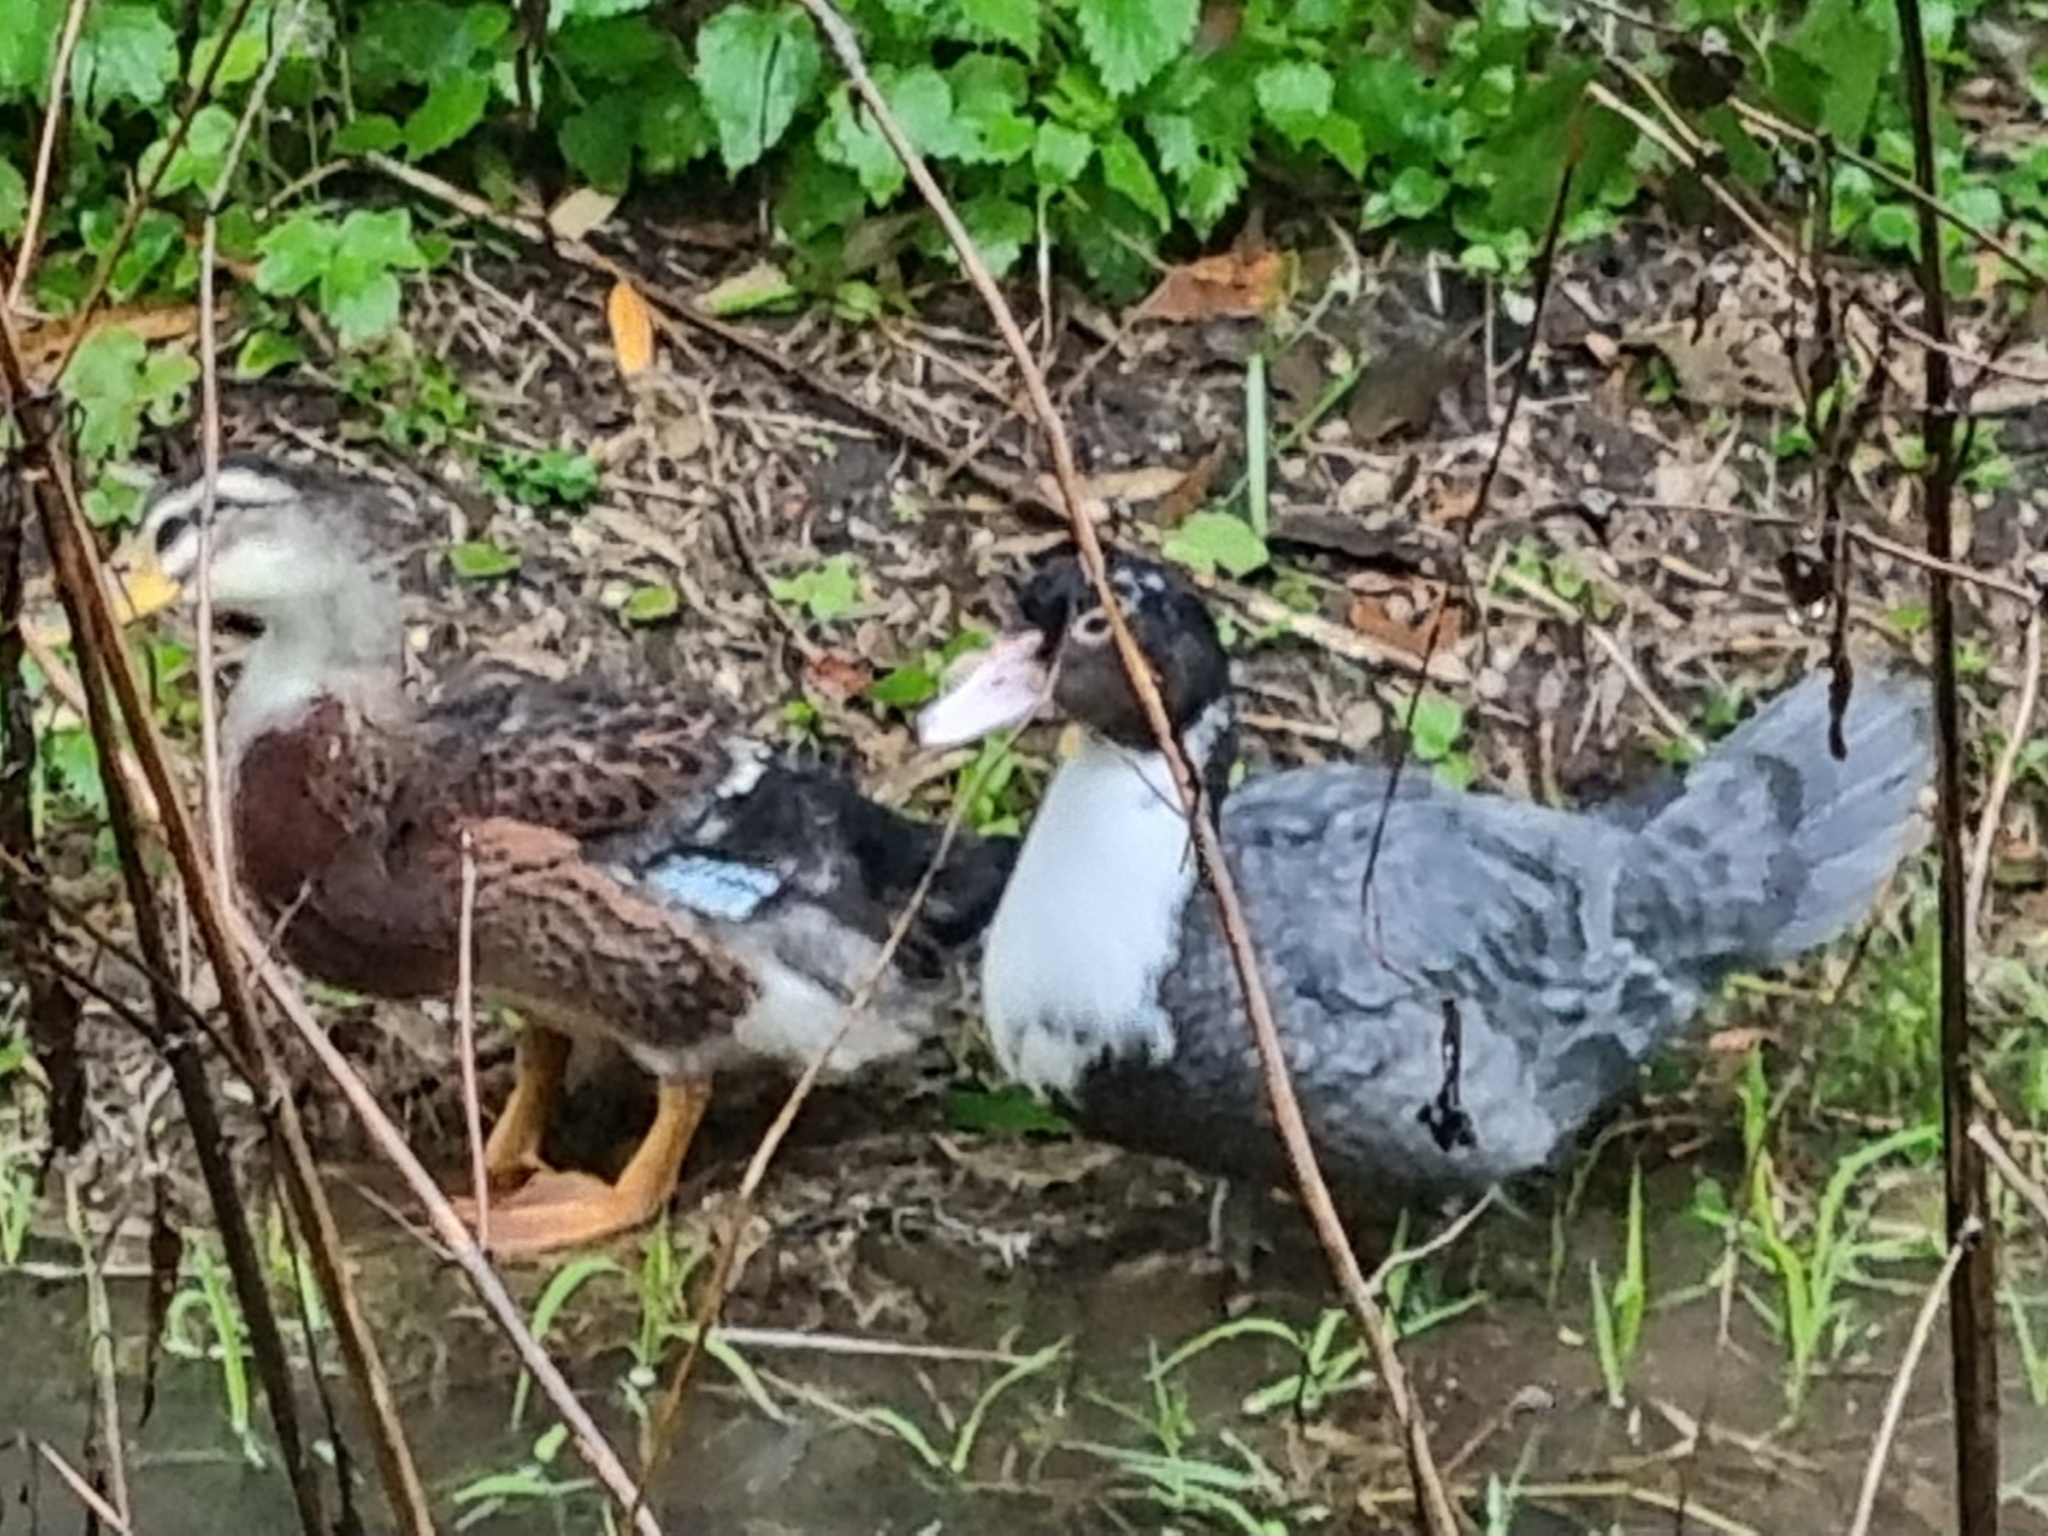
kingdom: Animalia
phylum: Chordata
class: Aves
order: Anseriformes
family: Anatidae
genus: Cairina
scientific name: Cairina moschata
